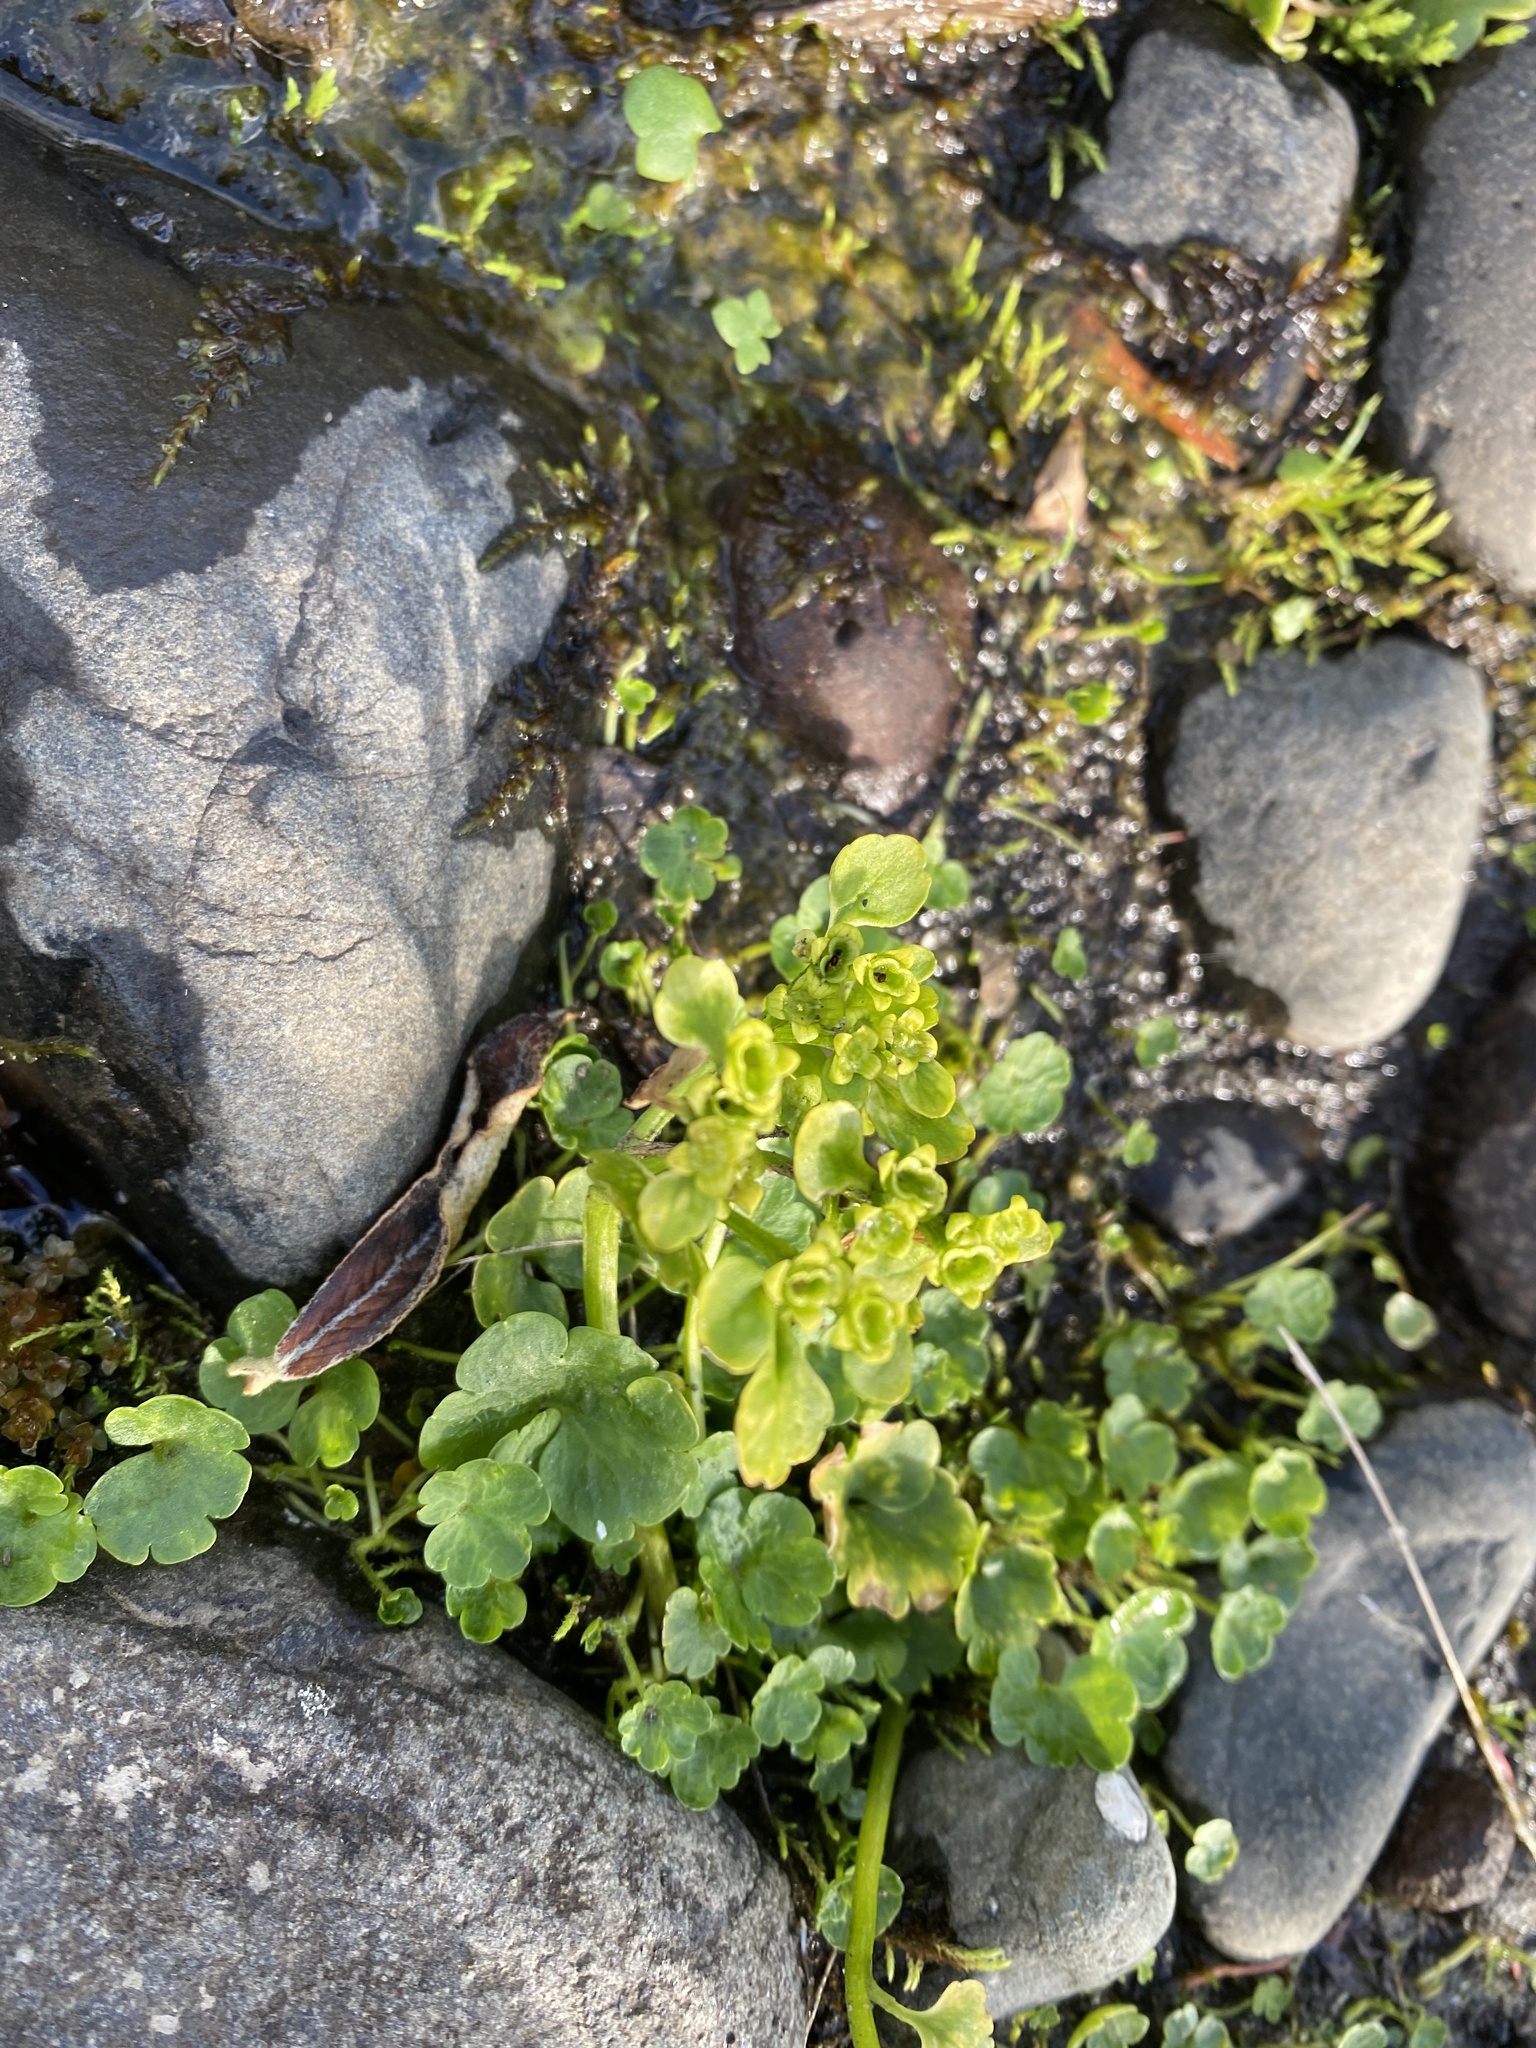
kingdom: Plantae
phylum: Tracheophyta
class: Magnoliopsida
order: Saxifragales
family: Saxifragaceae
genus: Chrysosplenium
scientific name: Chrysosplenium tetrandrum
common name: Green saxifrage
